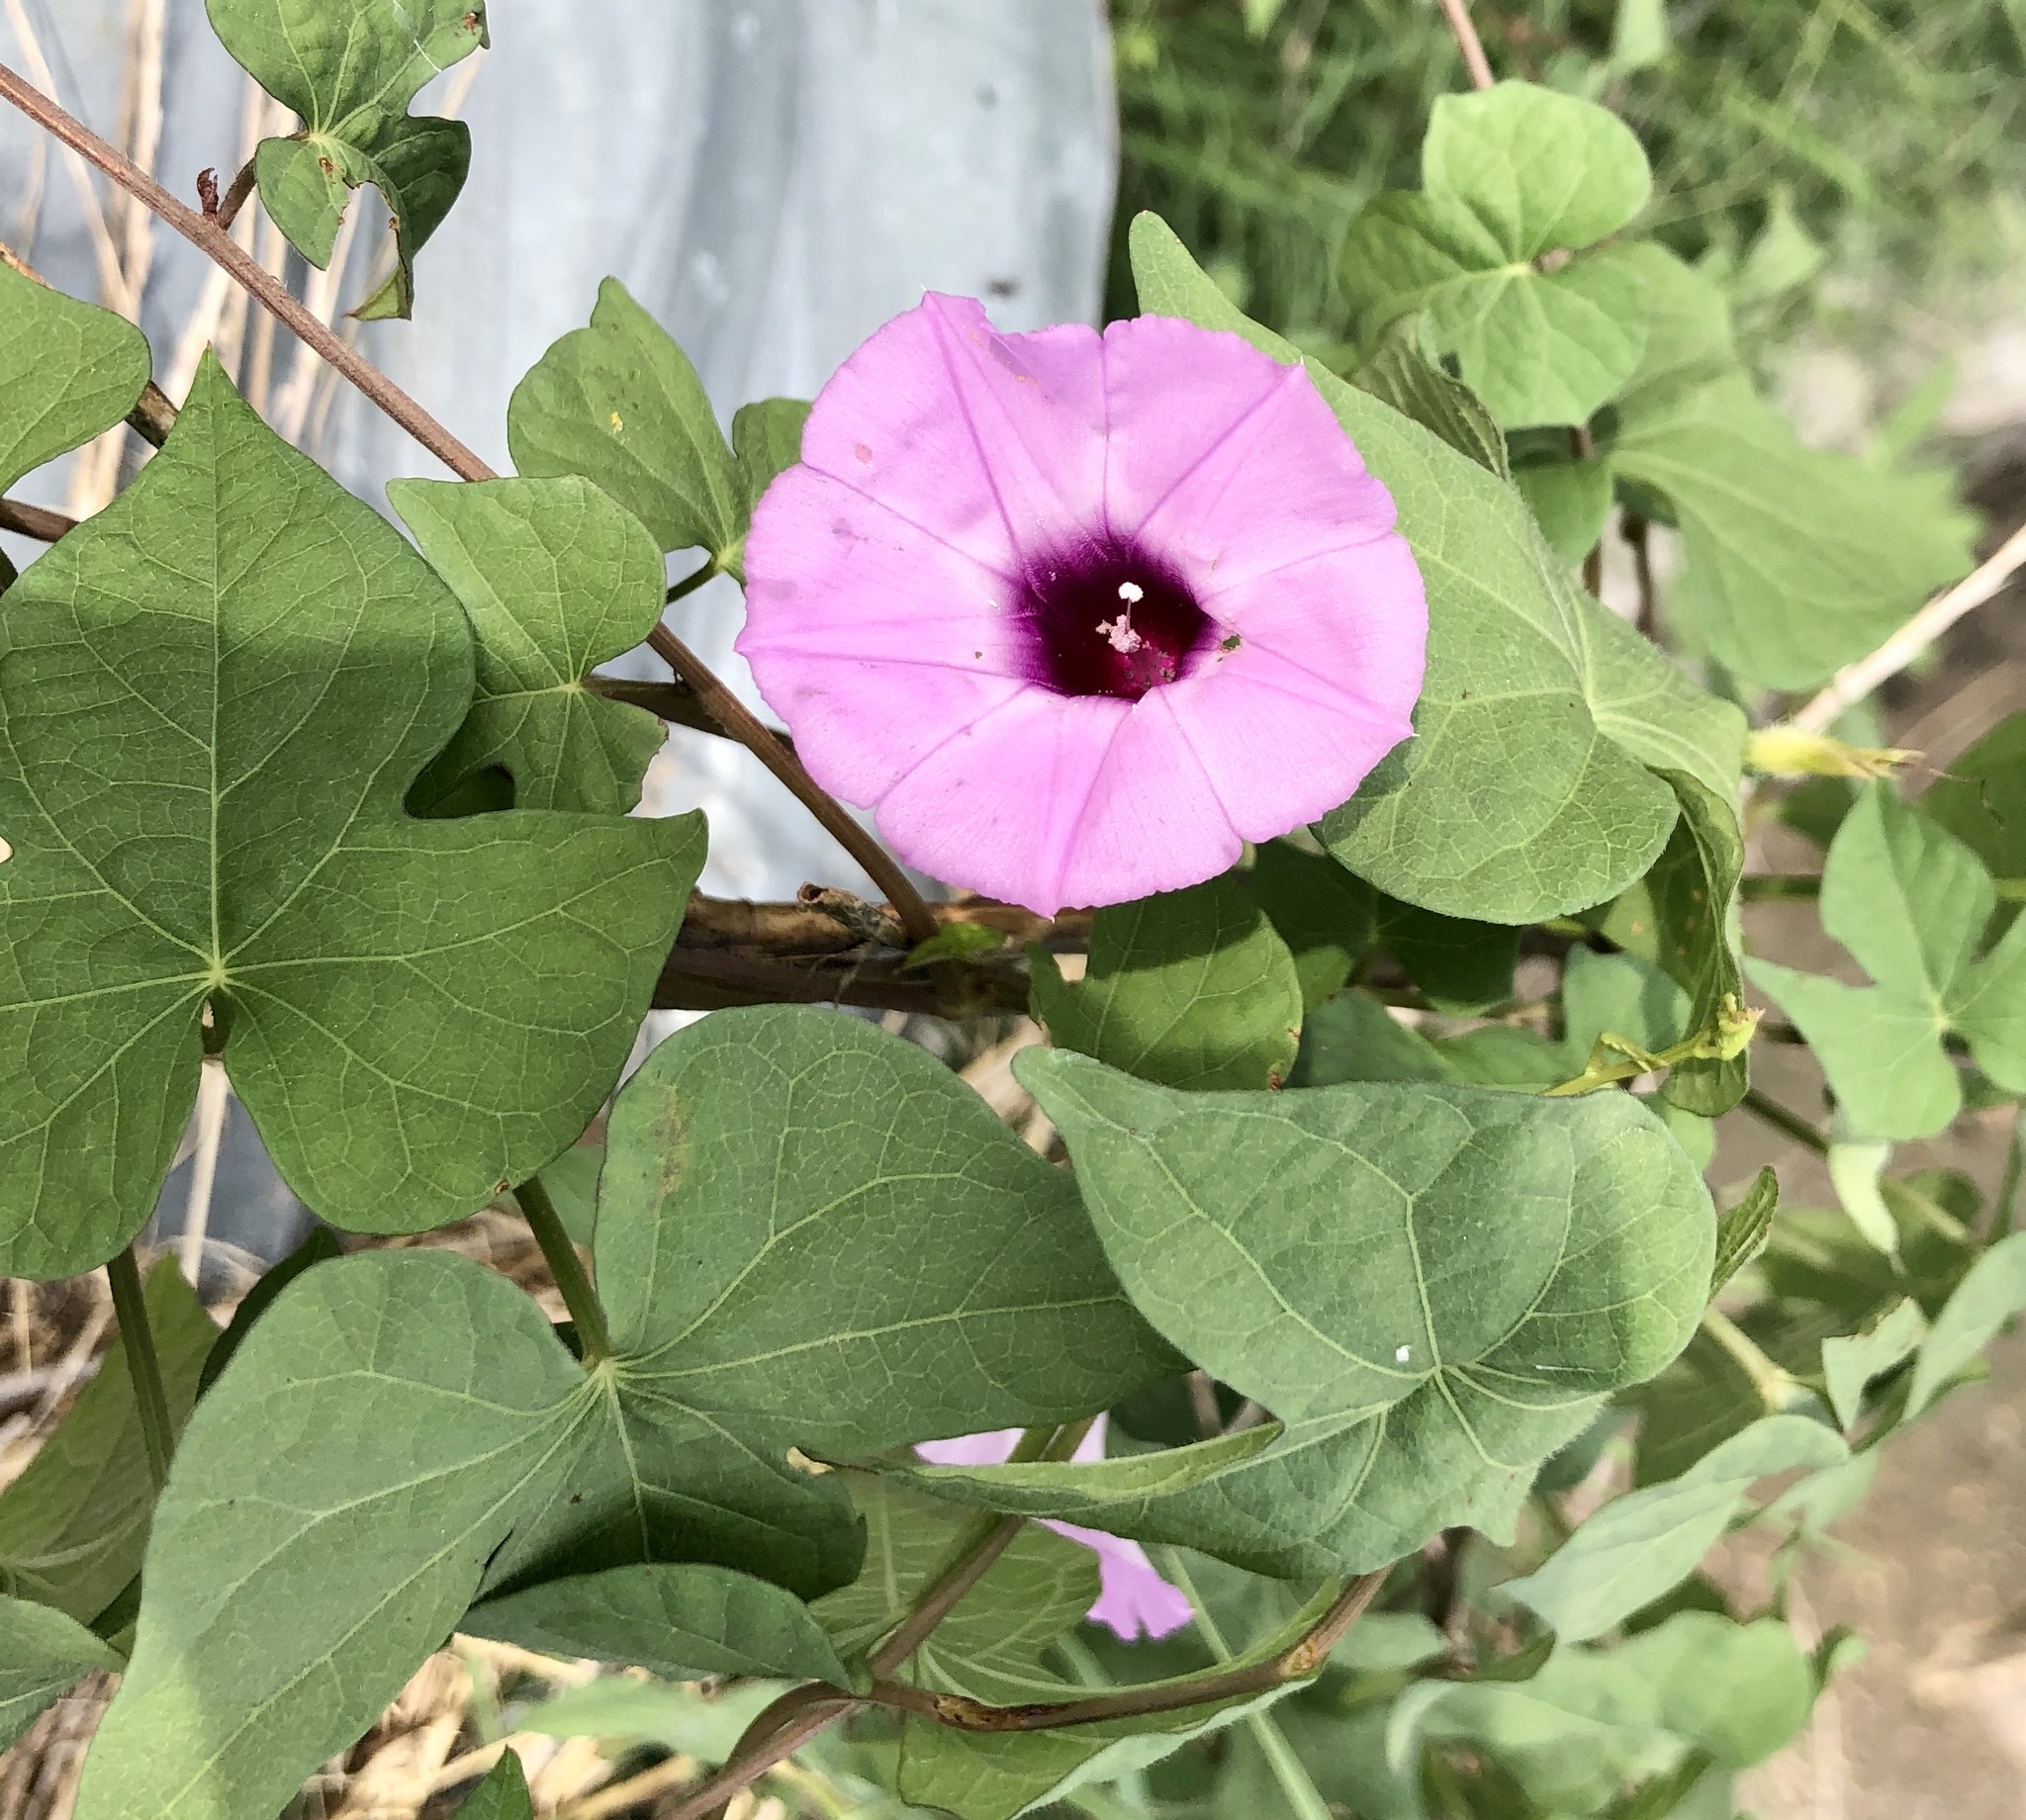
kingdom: Plantae
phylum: Tracheophyta
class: Magnoliopsida
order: Solanales
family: Convolvulaceae
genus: Ipomoea
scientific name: Ipomoea cordatotriloba
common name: Cotton morning glory
